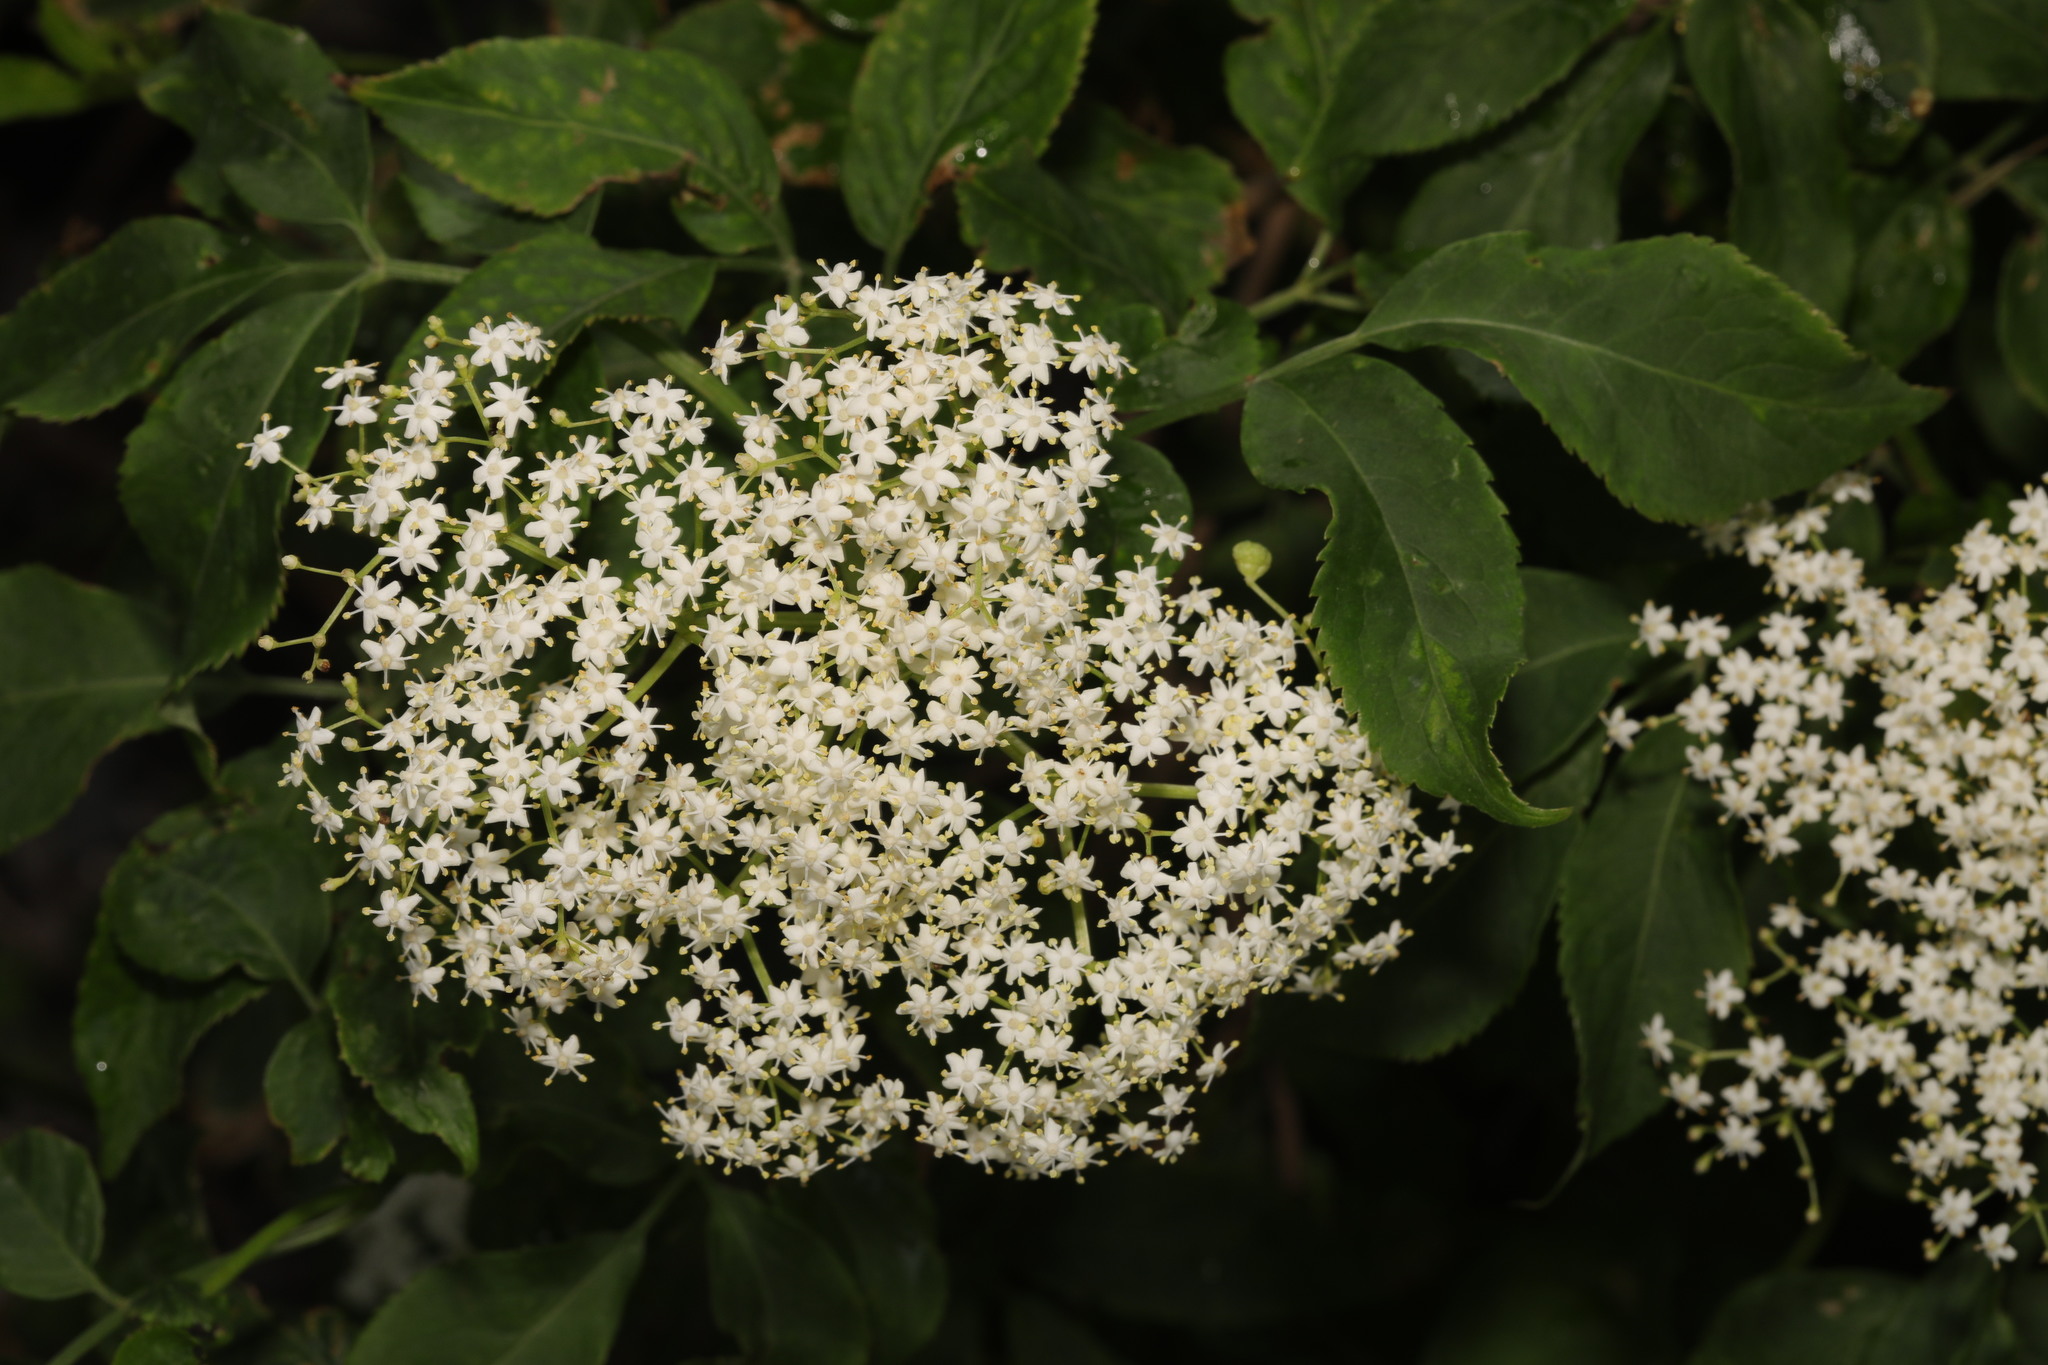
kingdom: Plantae
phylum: Tracheophyta
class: Magnoliopsida
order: Dipsacales
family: Viburnaceae
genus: Sambucus
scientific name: Sambucus nigra
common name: Elder
